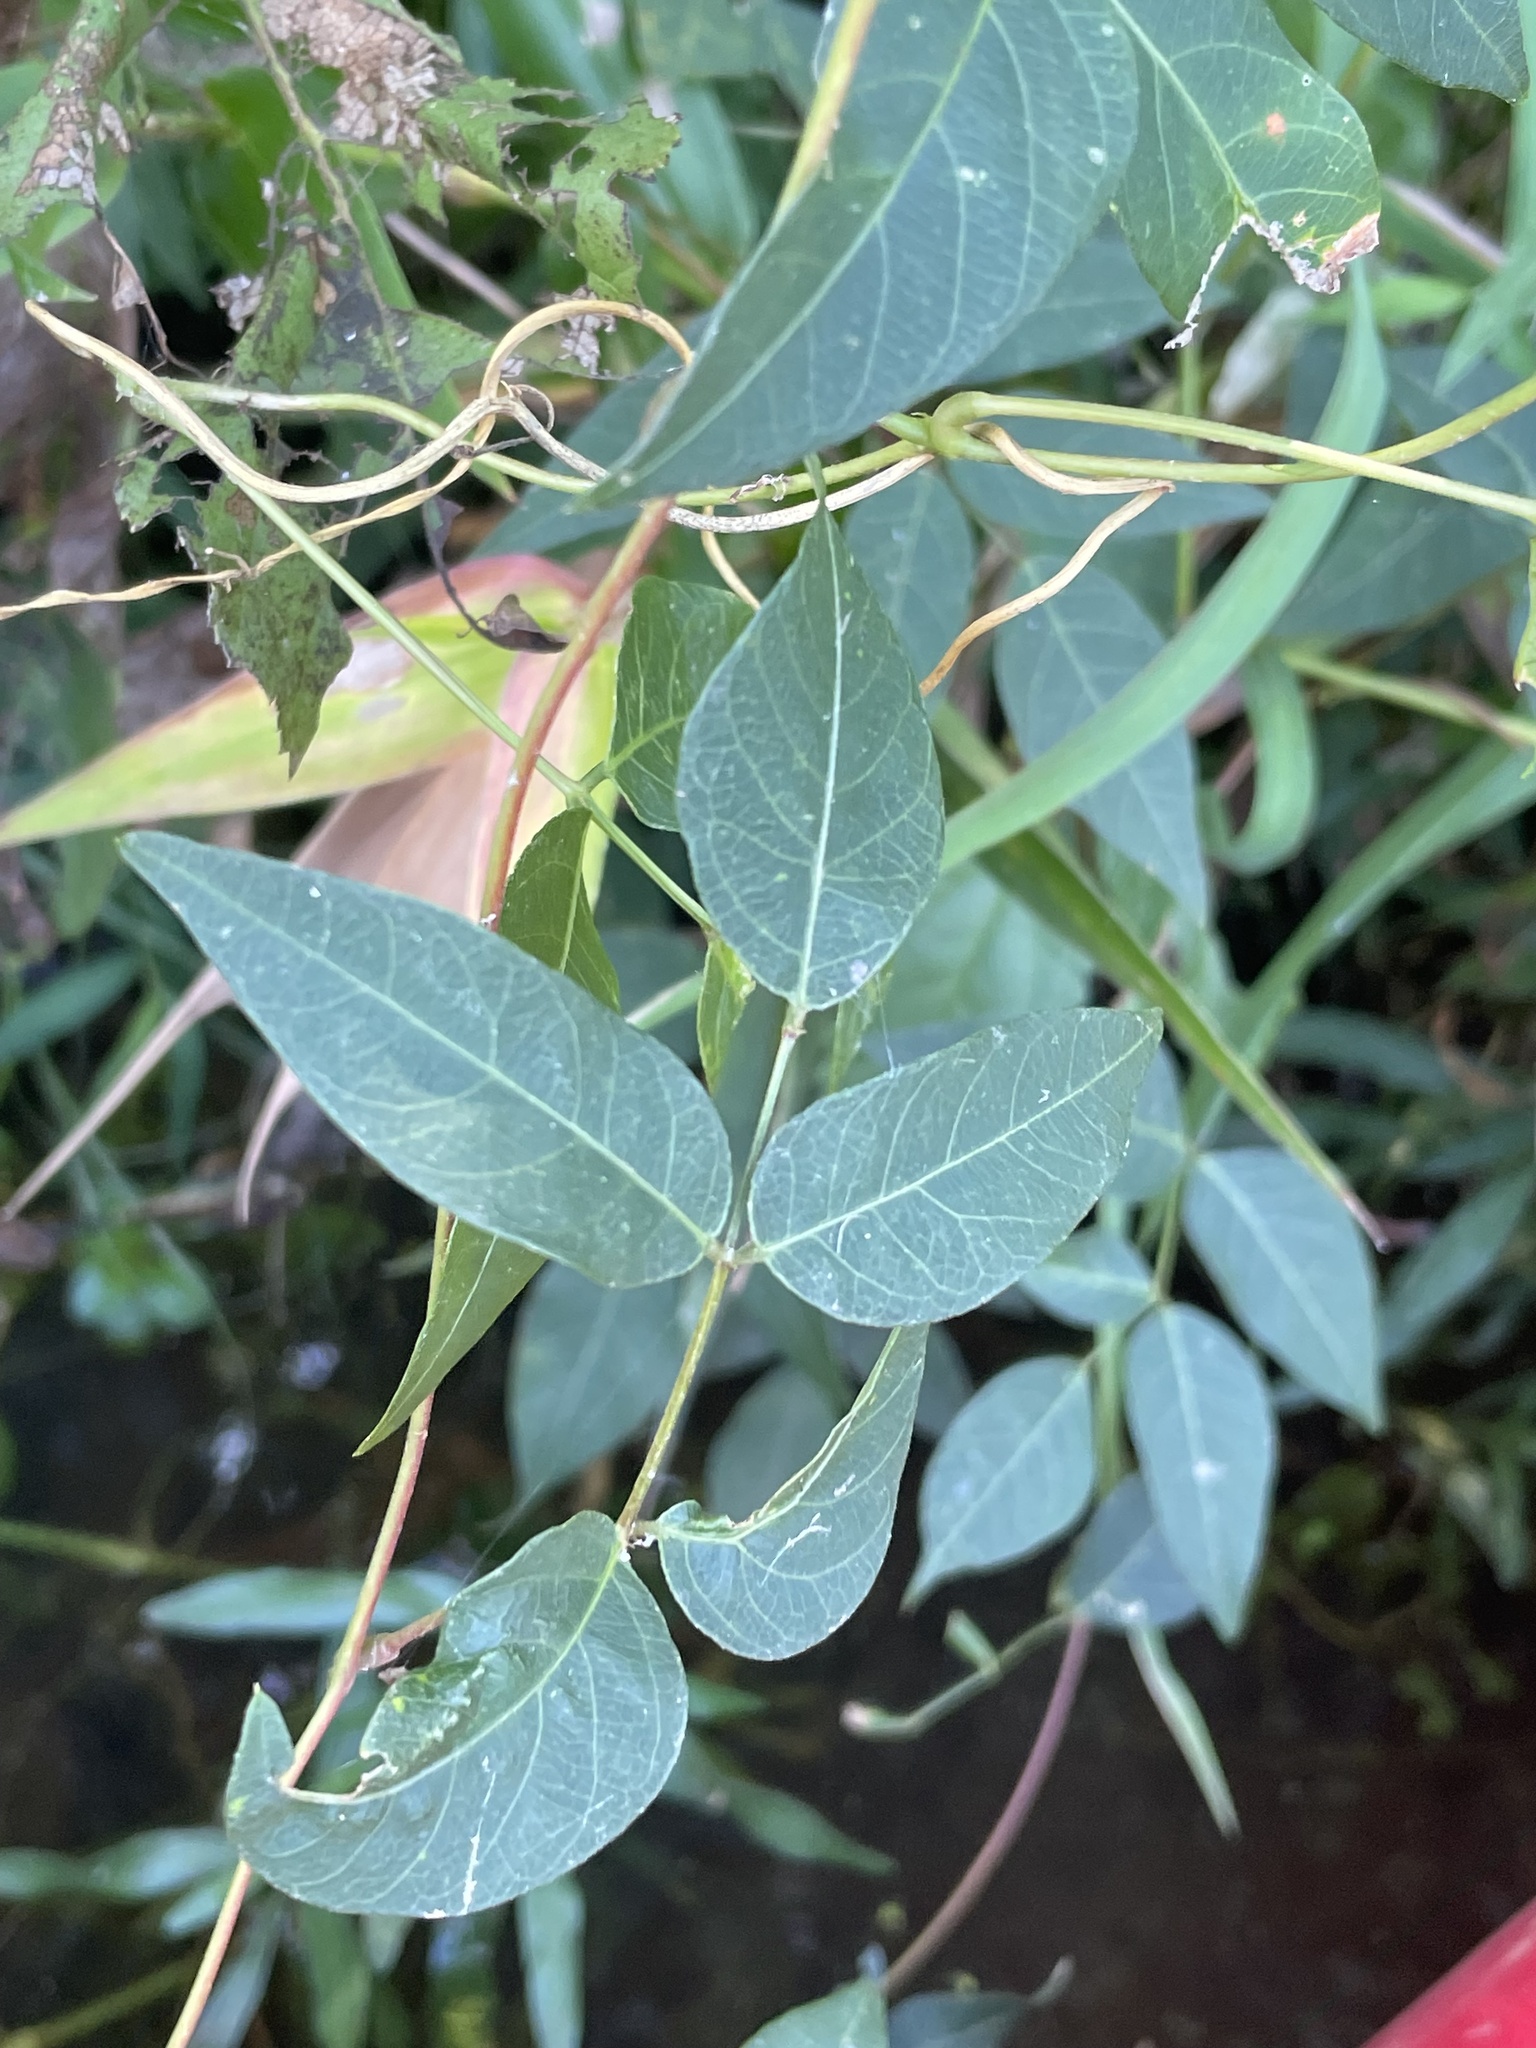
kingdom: Plantae
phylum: Tracheophyta
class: Magnoliopsida
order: Fabales
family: Fabaceae
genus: Apios
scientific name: Apios americana
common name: American potato-bean
